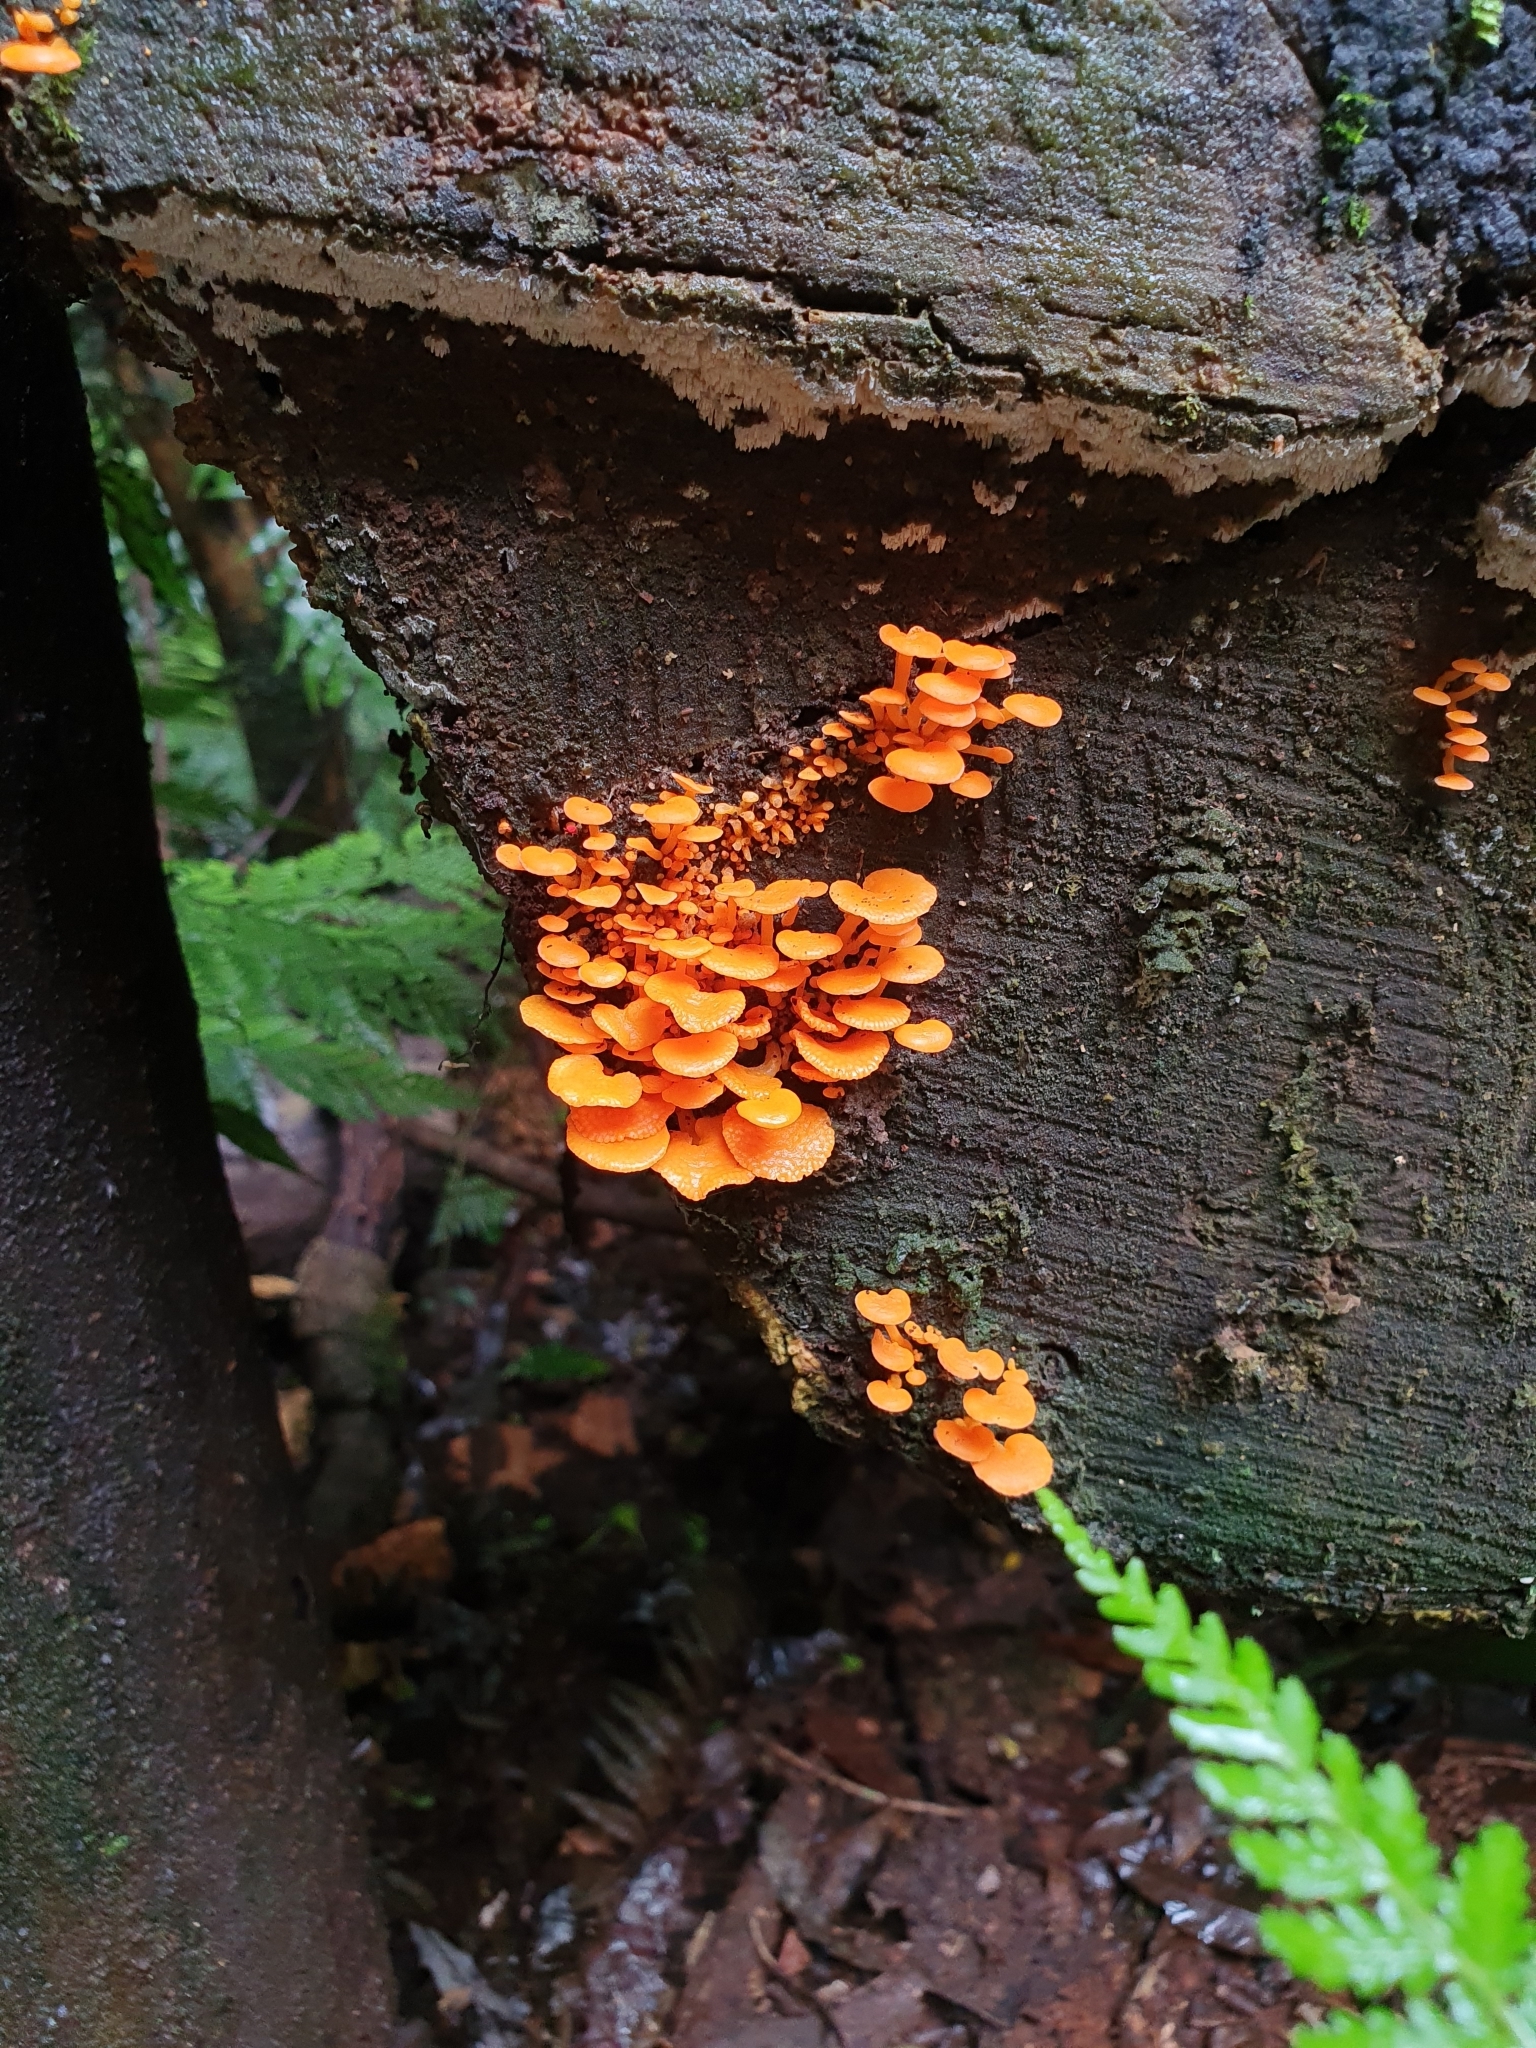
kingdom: Fungi
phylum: Basidiomycota
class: Agaricomycetes
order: Agaricales
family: Mycenaceae
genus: Favolaschia
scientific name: Favolaschia claudopus
